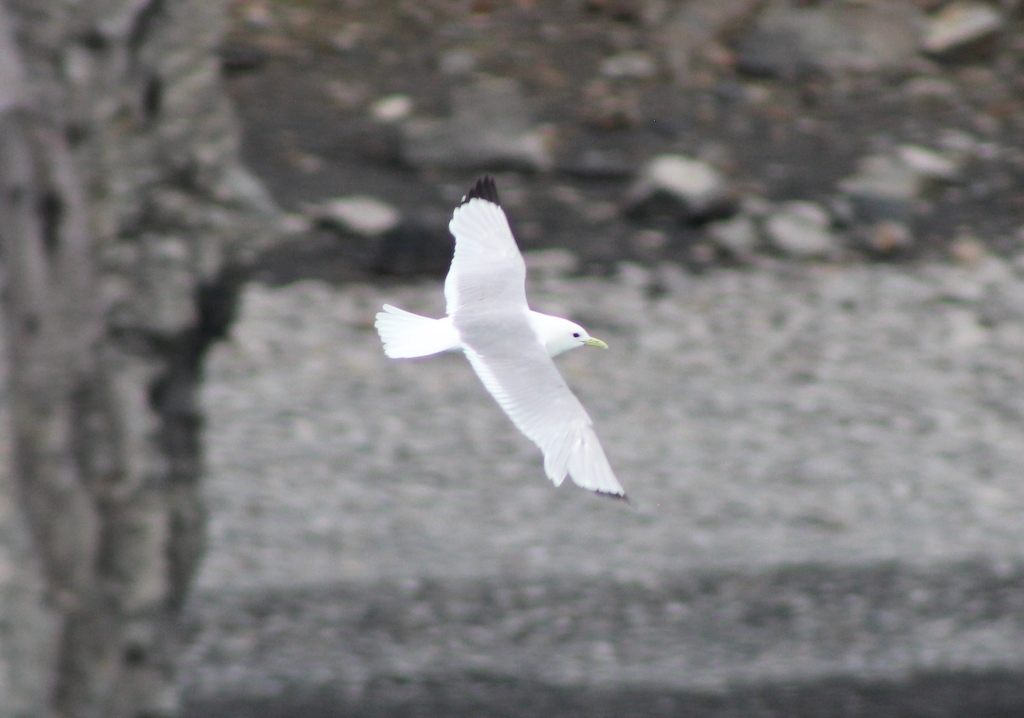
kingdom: Animalia
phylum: Chordata
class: Aves
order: Charadriiformes
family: Laridae
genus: Rissa
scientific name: Rissa tridactyla
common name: Black-legged kittiwake
